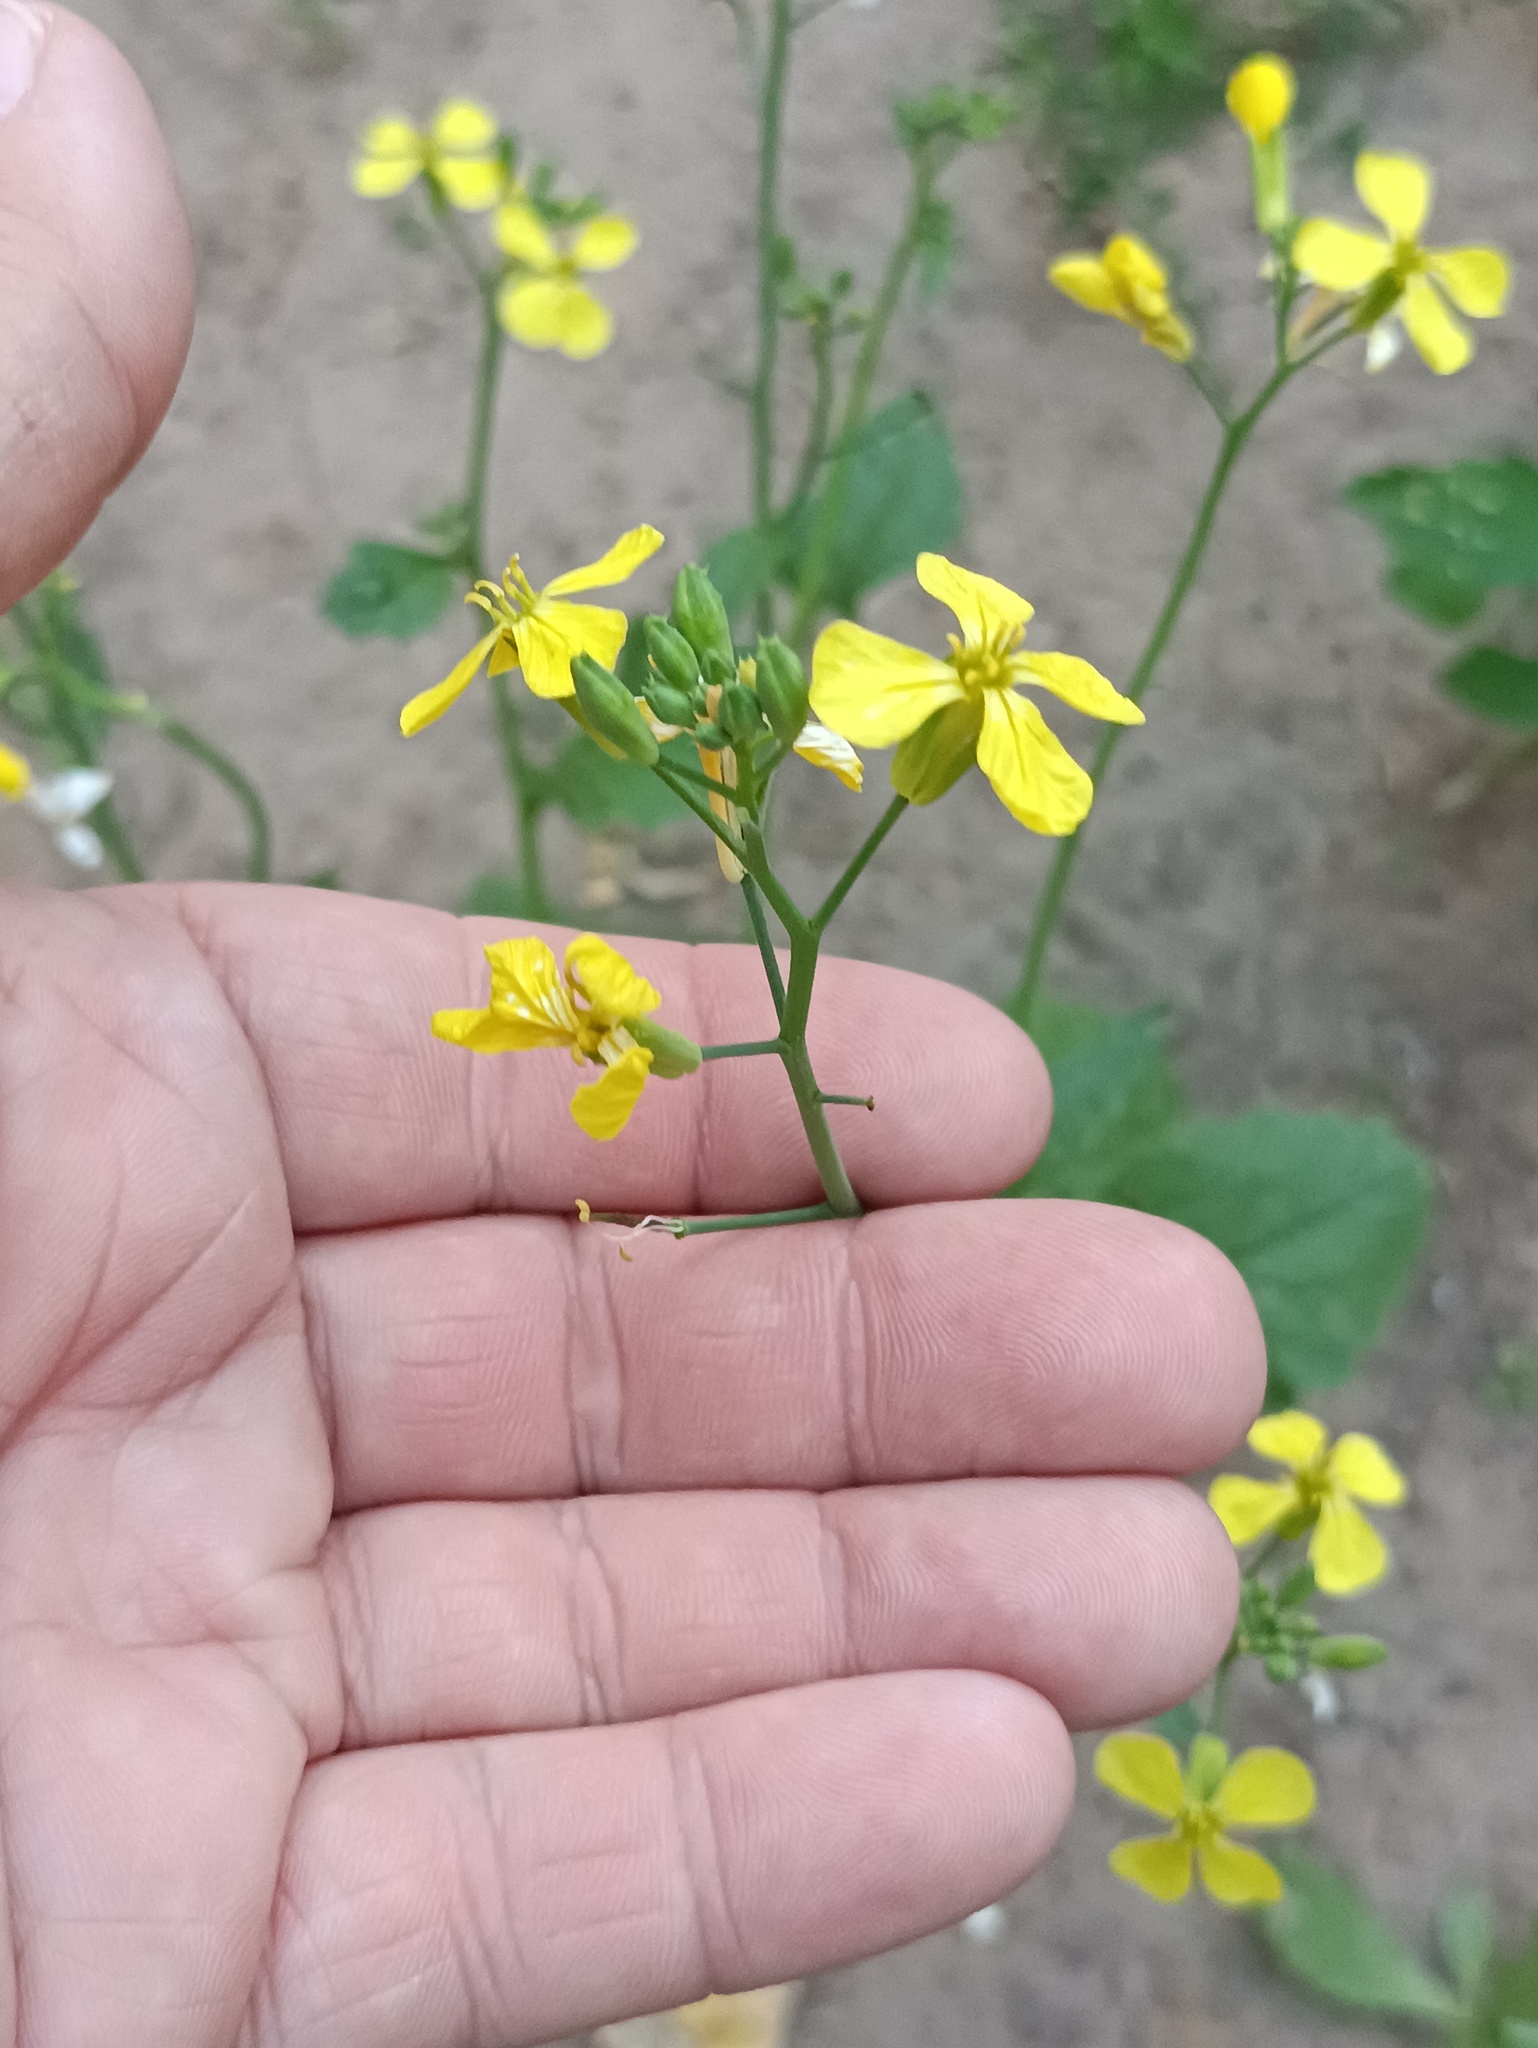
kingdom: Plantae
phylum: Tracheophyta
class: Magnoliopsida
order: Brassicales
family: Brassicaceae
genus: Raphanus
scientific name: Raphanus raphanistrum
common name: Wild radish
